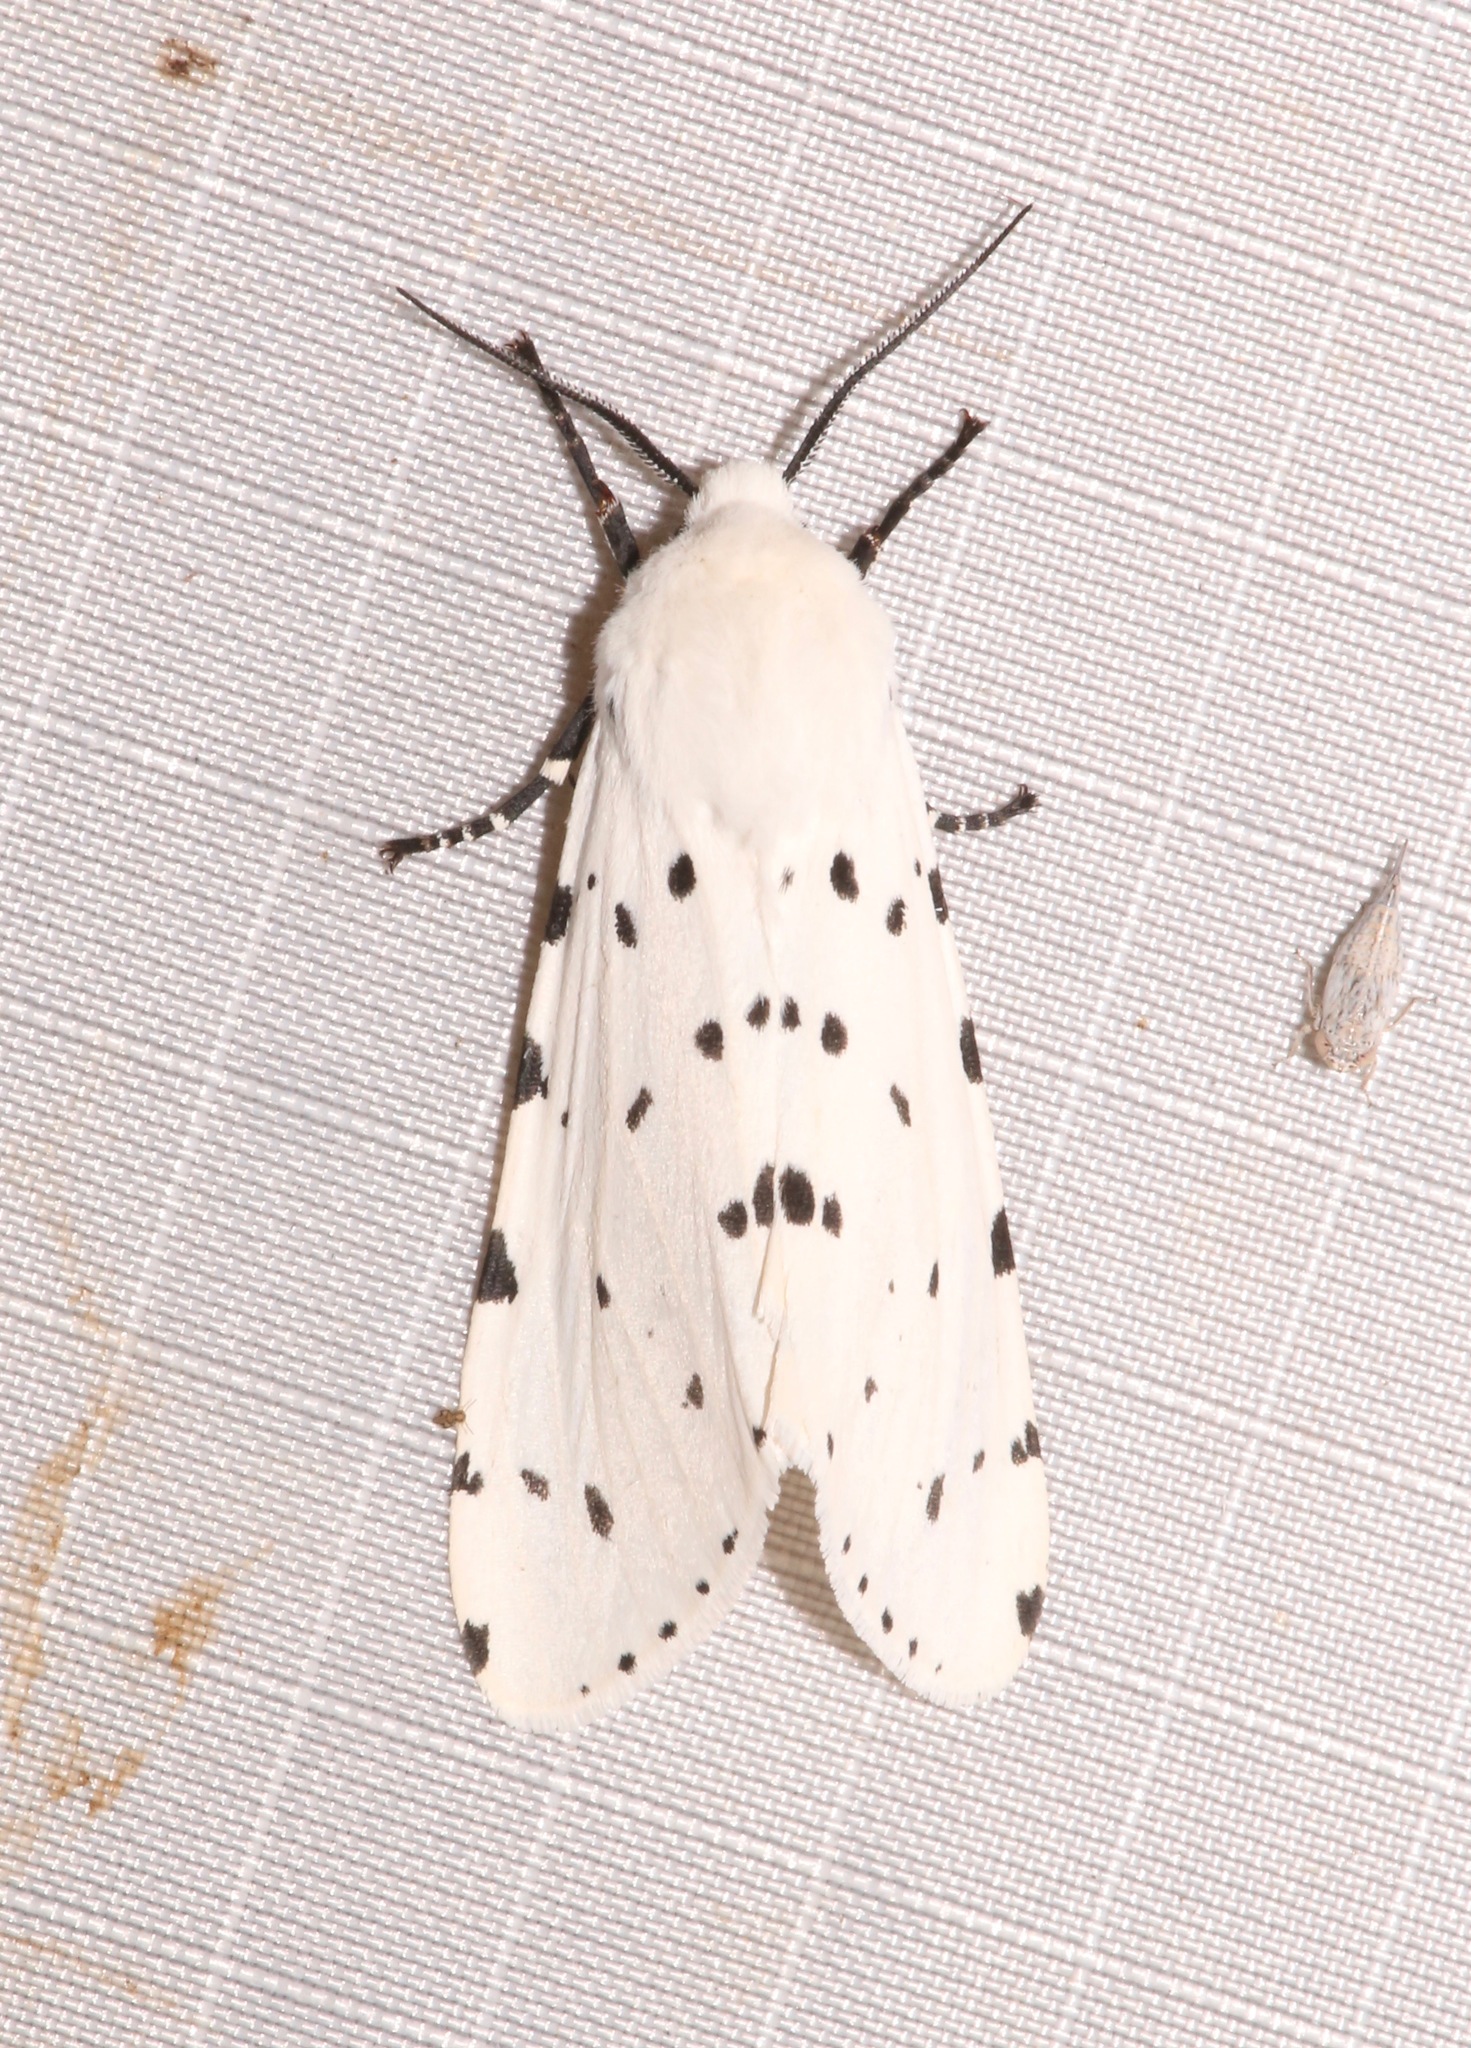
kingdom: Animalia
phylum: Arthropoda
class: Insecta
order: Lepidoptera
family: Erebidae
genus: Estigmene
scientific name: Estigmene albida
